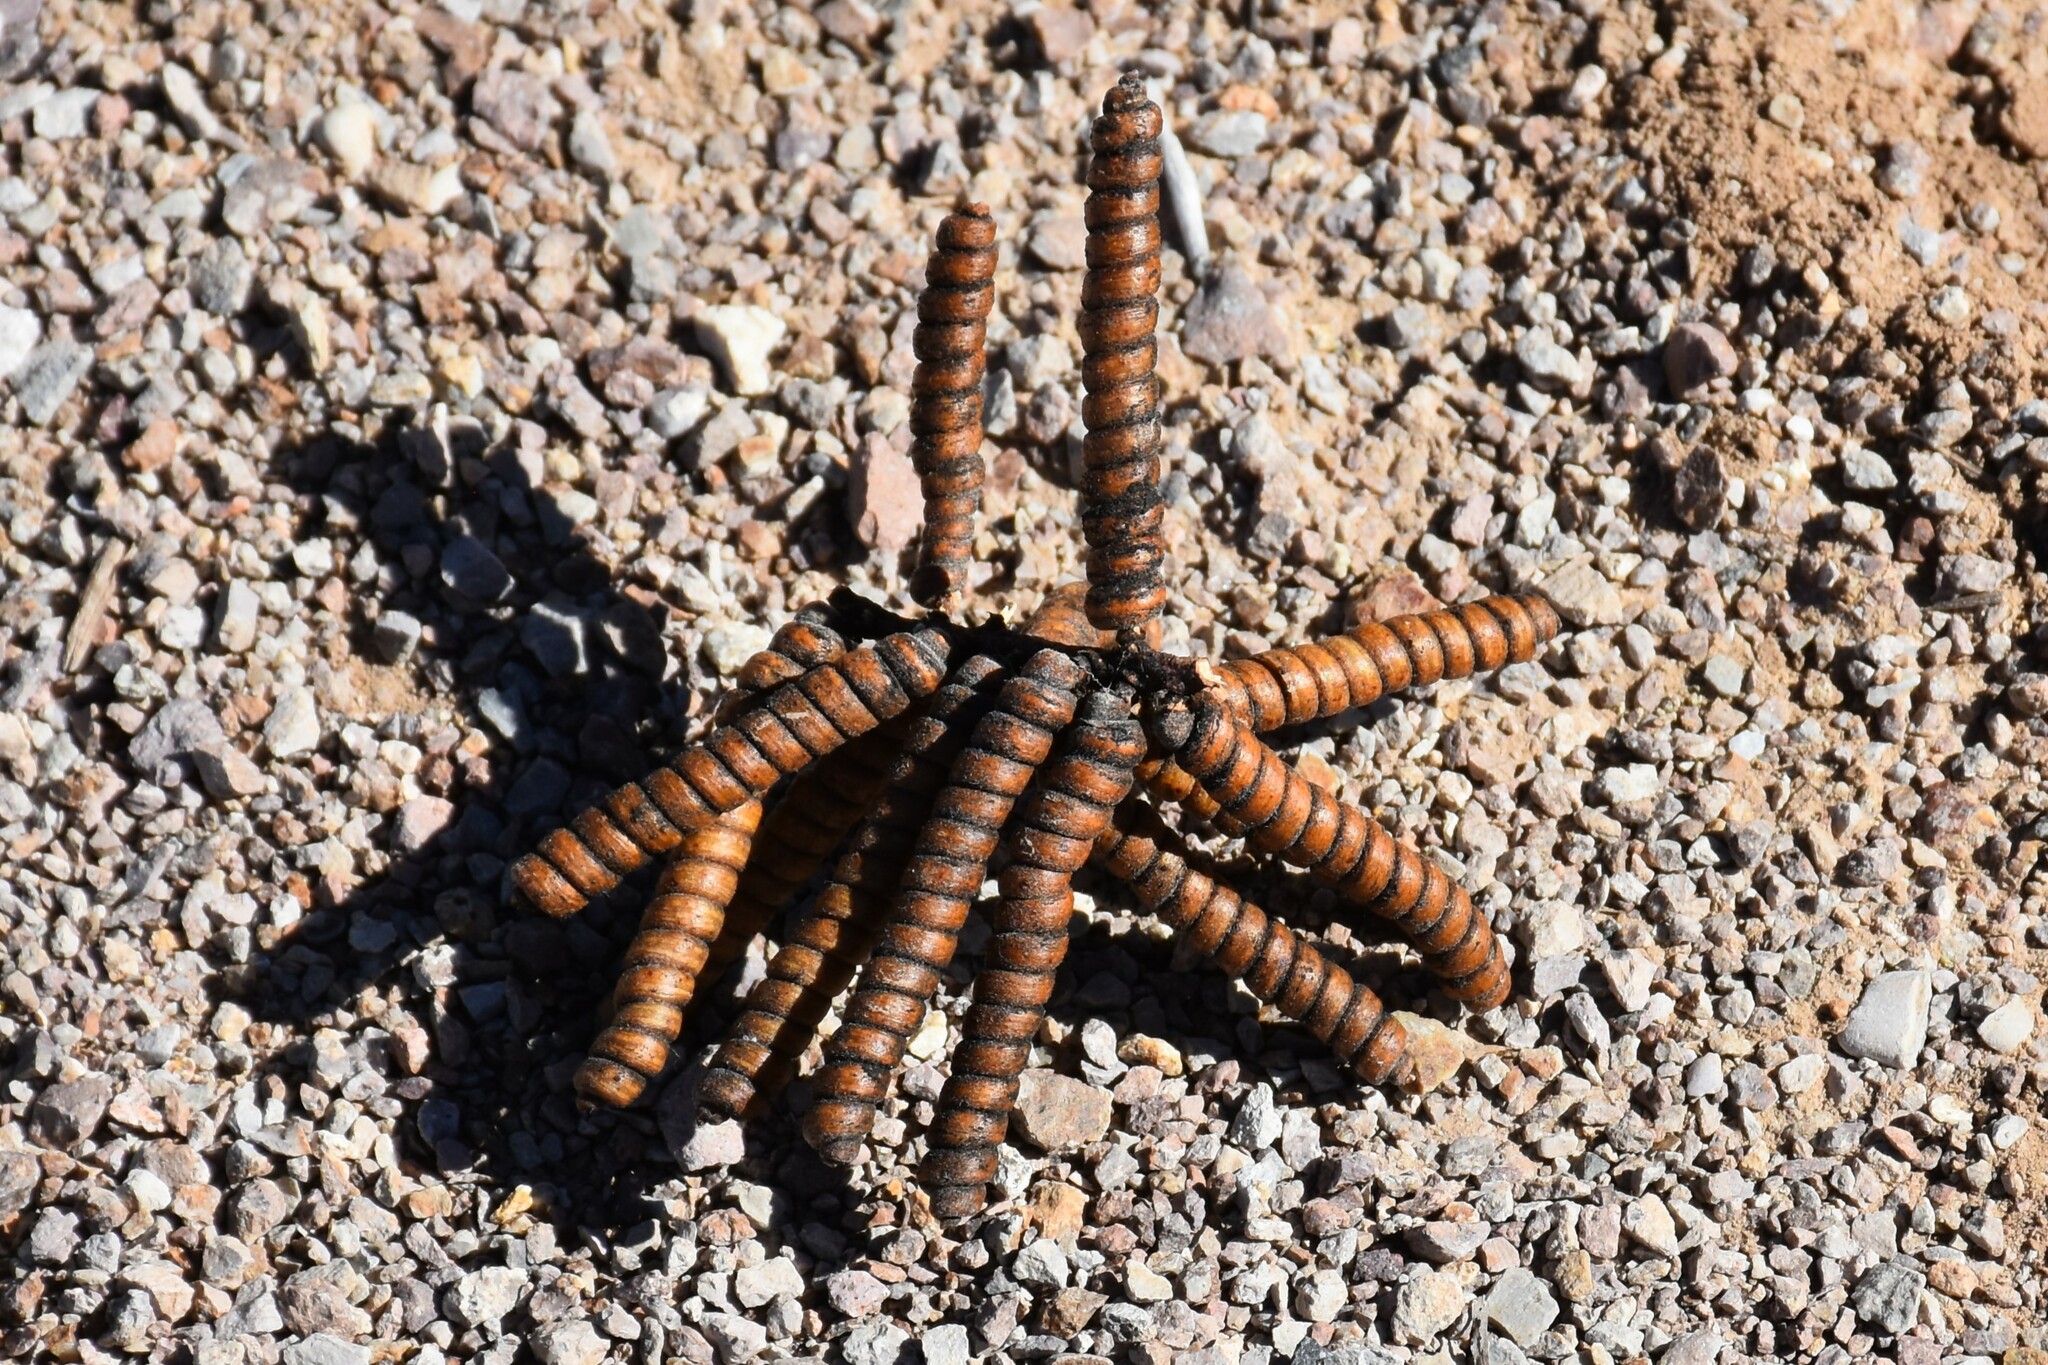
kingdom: Plantae
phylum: Tracheophyta
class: Magnoliopsida
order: Fabales
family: Fabaceae
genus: Prosopis
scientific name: Prosopis pubescens
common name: Screw-bean
